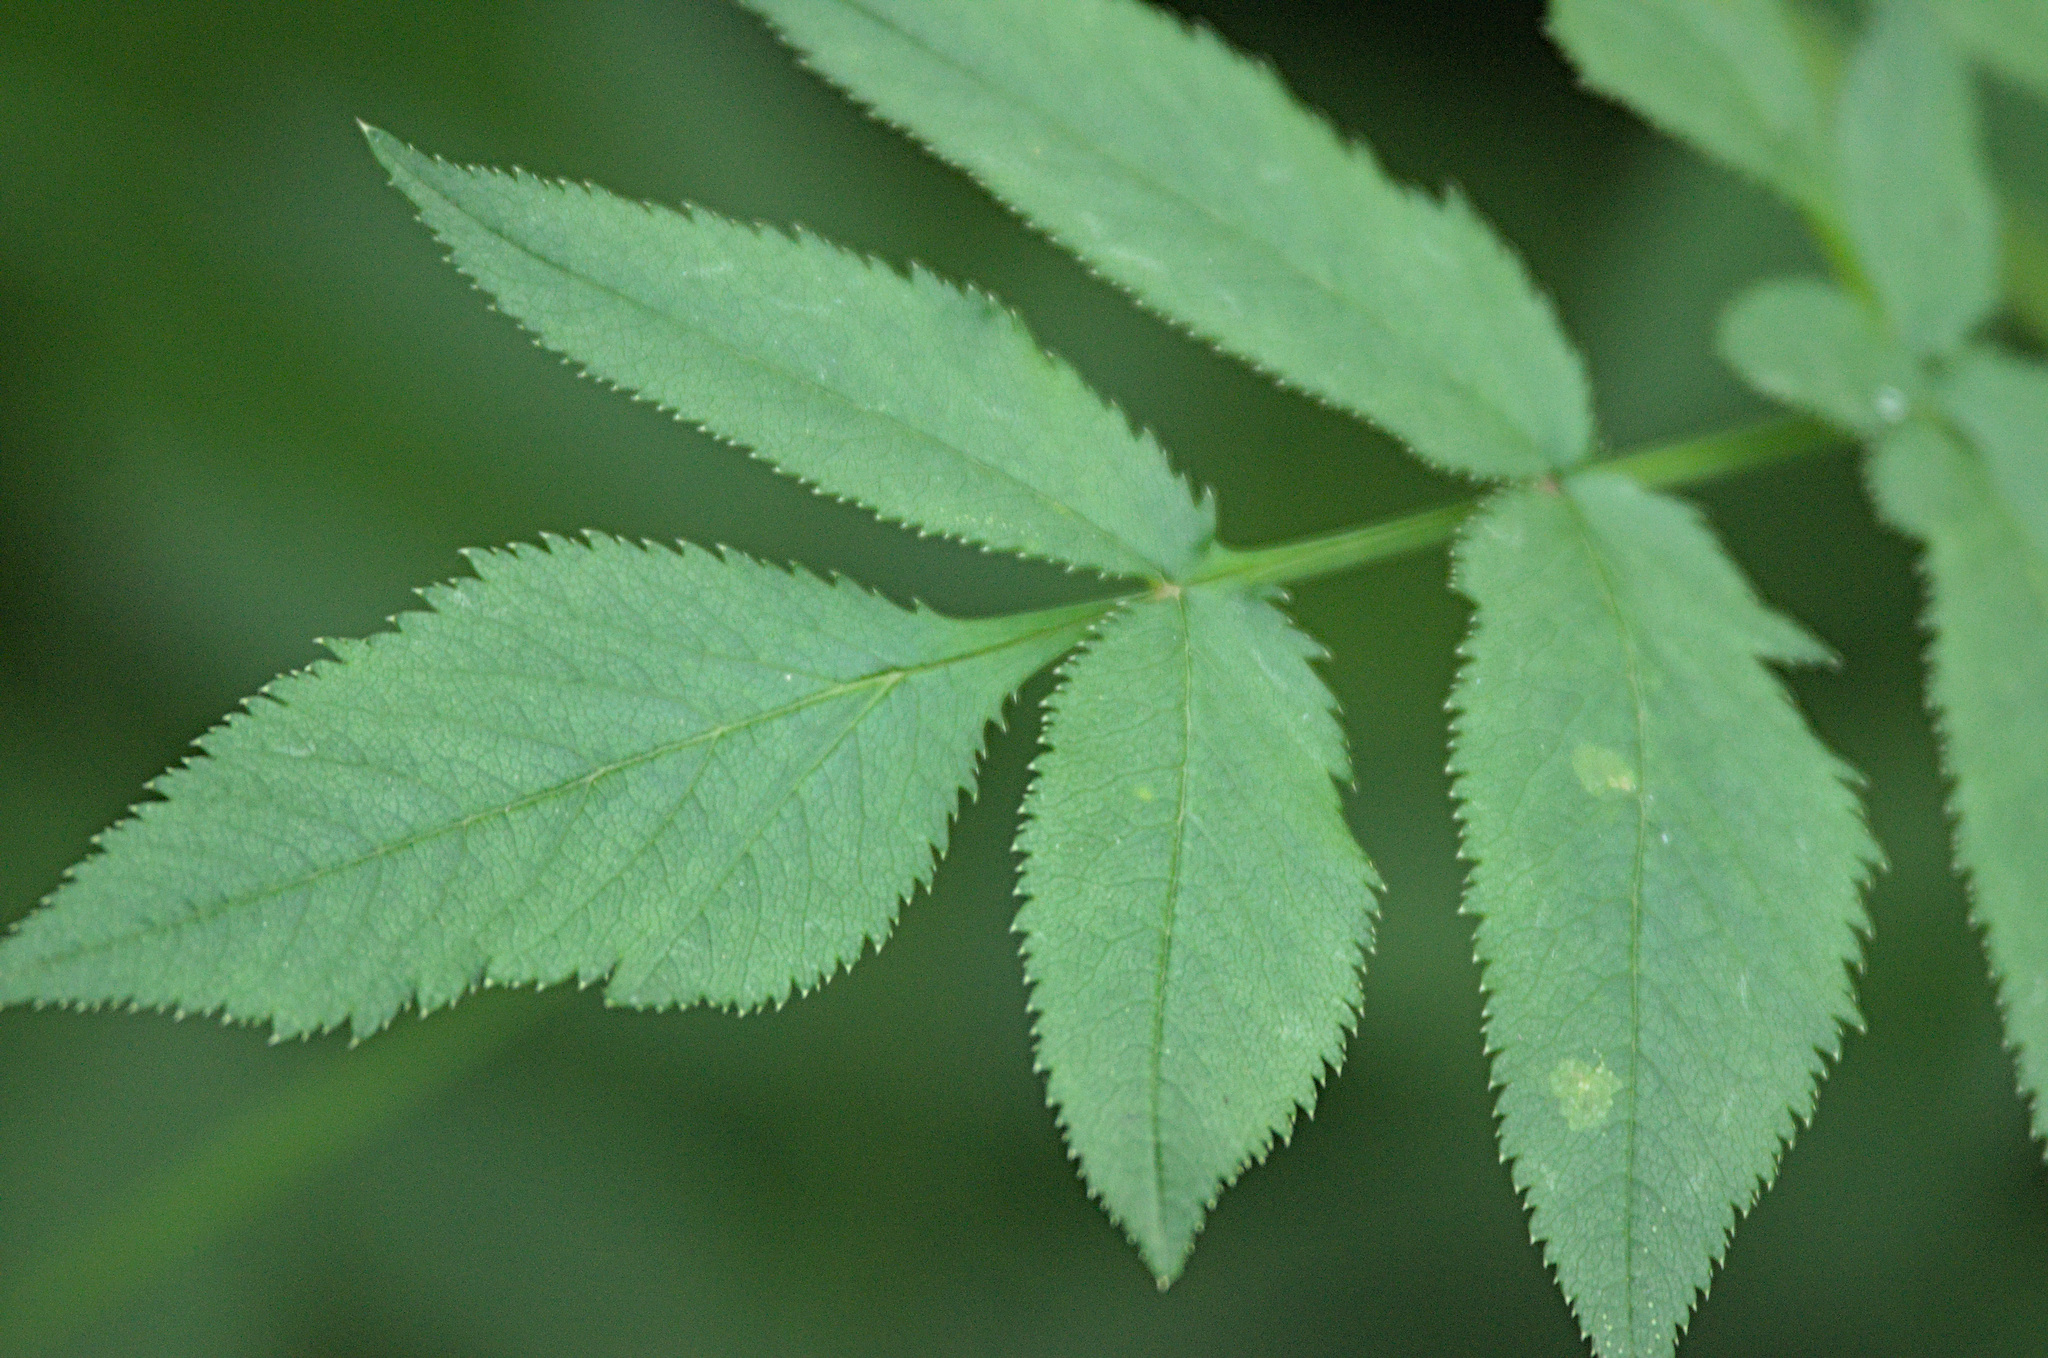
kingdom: Plantae
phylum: Tracheophyta
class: Magnoliopsida
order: Apiales
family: Apiaceae
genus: Angelica
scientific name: Angelica sylvestris
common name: Wild angelica
